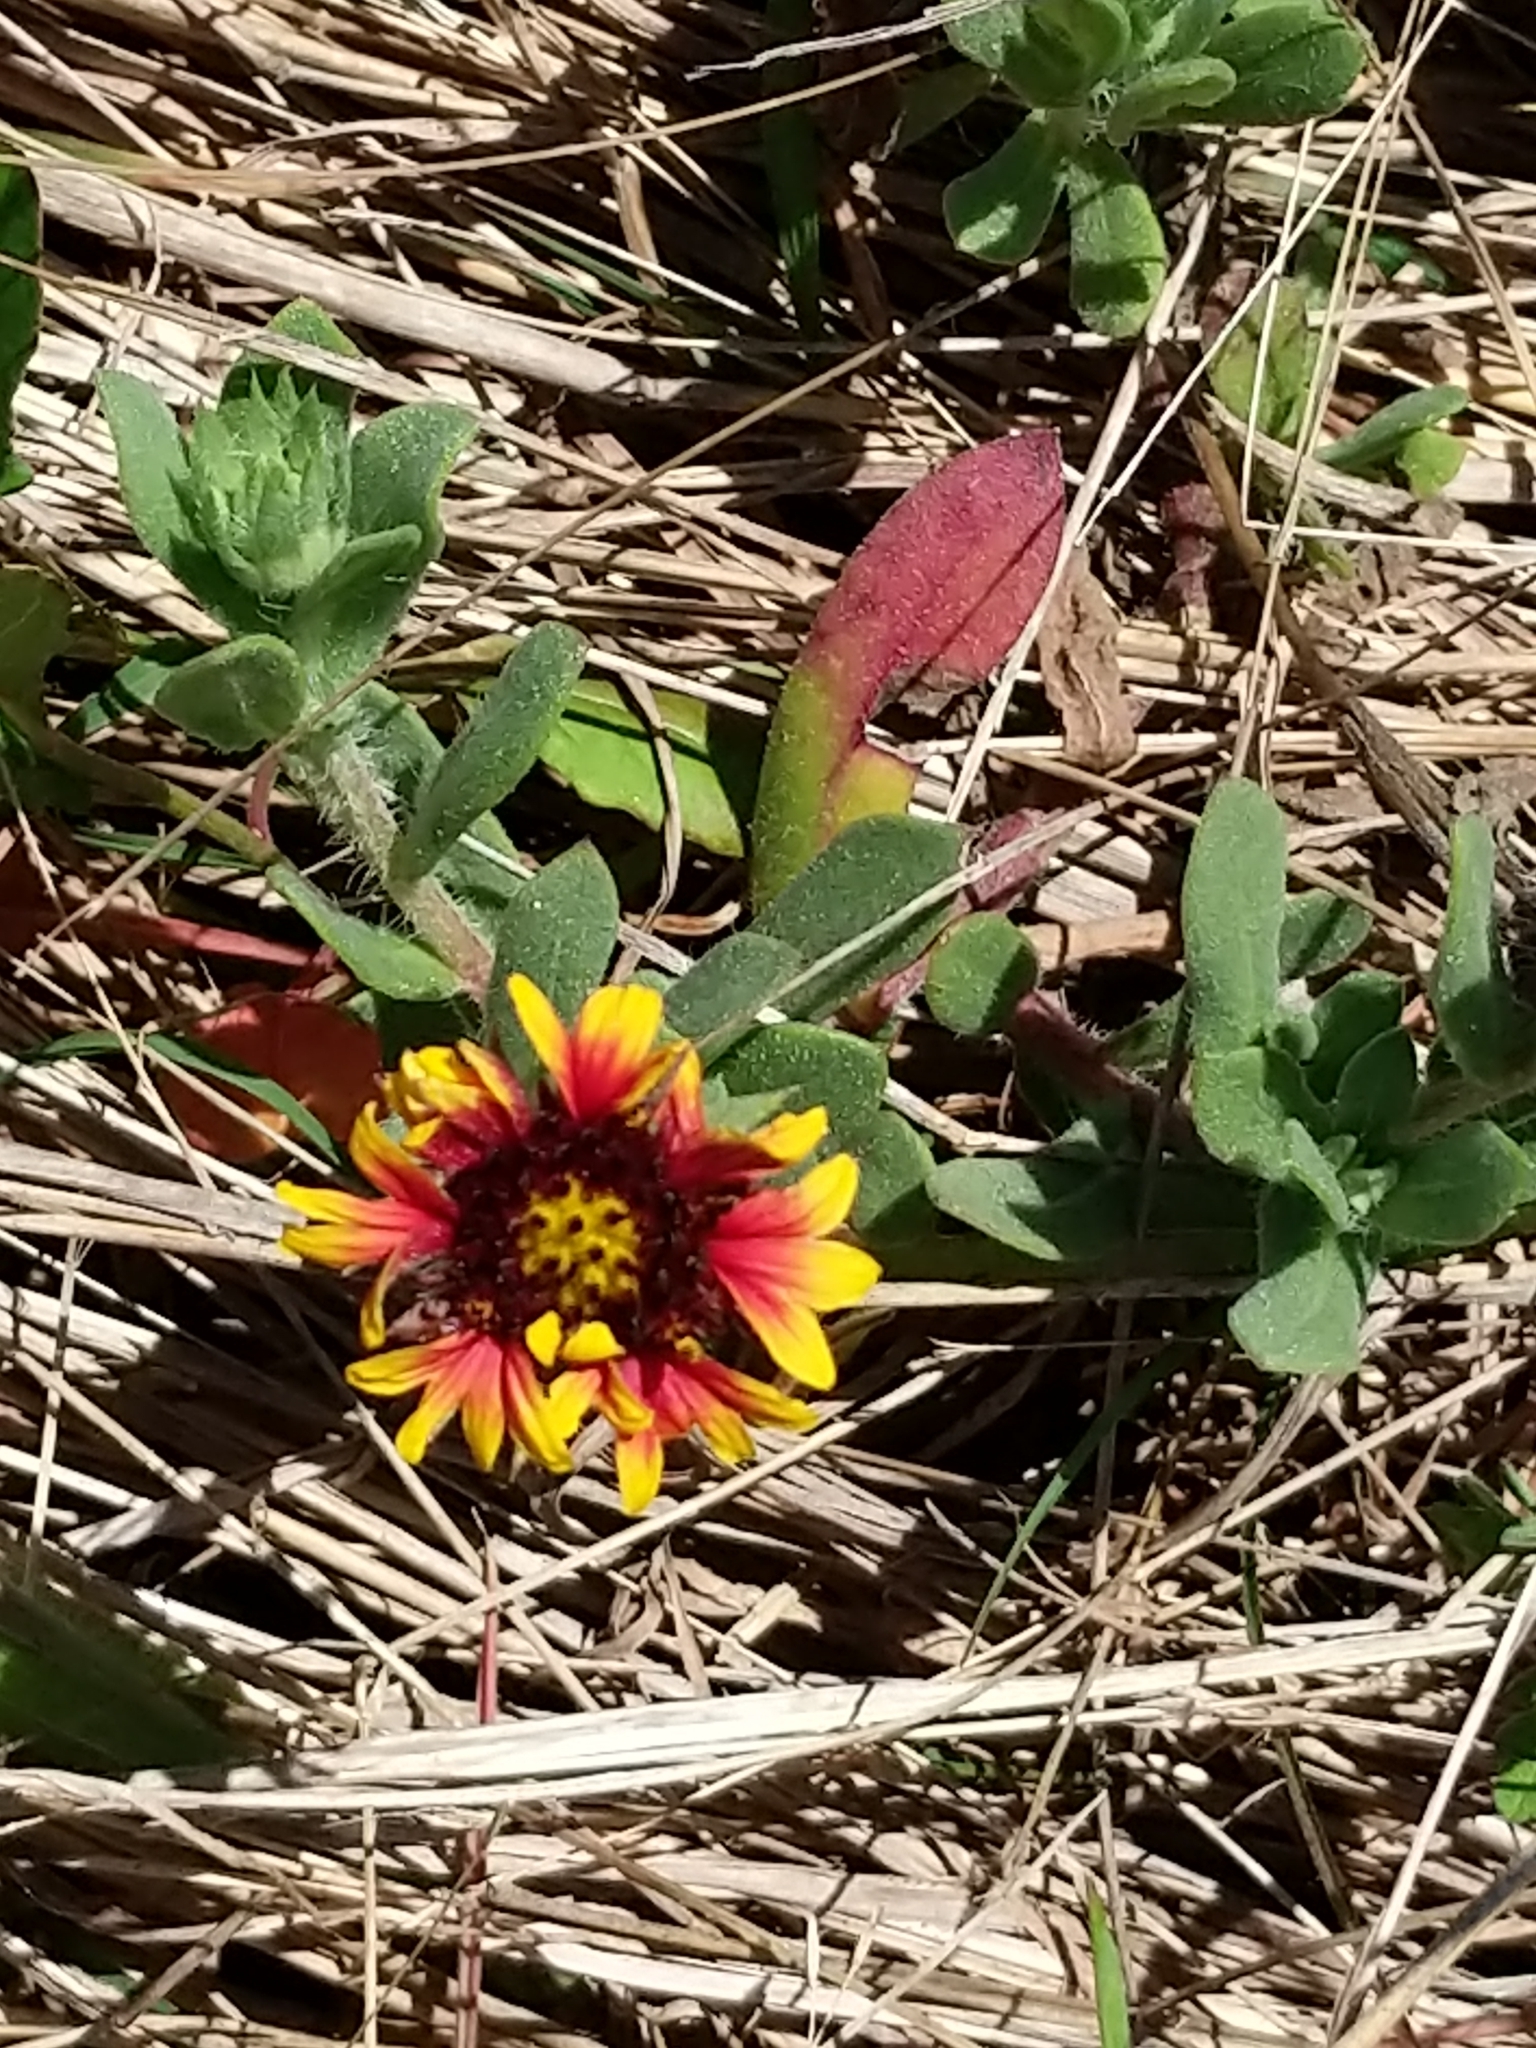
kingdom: Plantae
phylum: Tracheophyta
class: Magnoliopsida
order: Asterales
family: Asteraceae
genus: Gaillardia
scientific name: Gaillardia pulchella
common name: Firewheel
